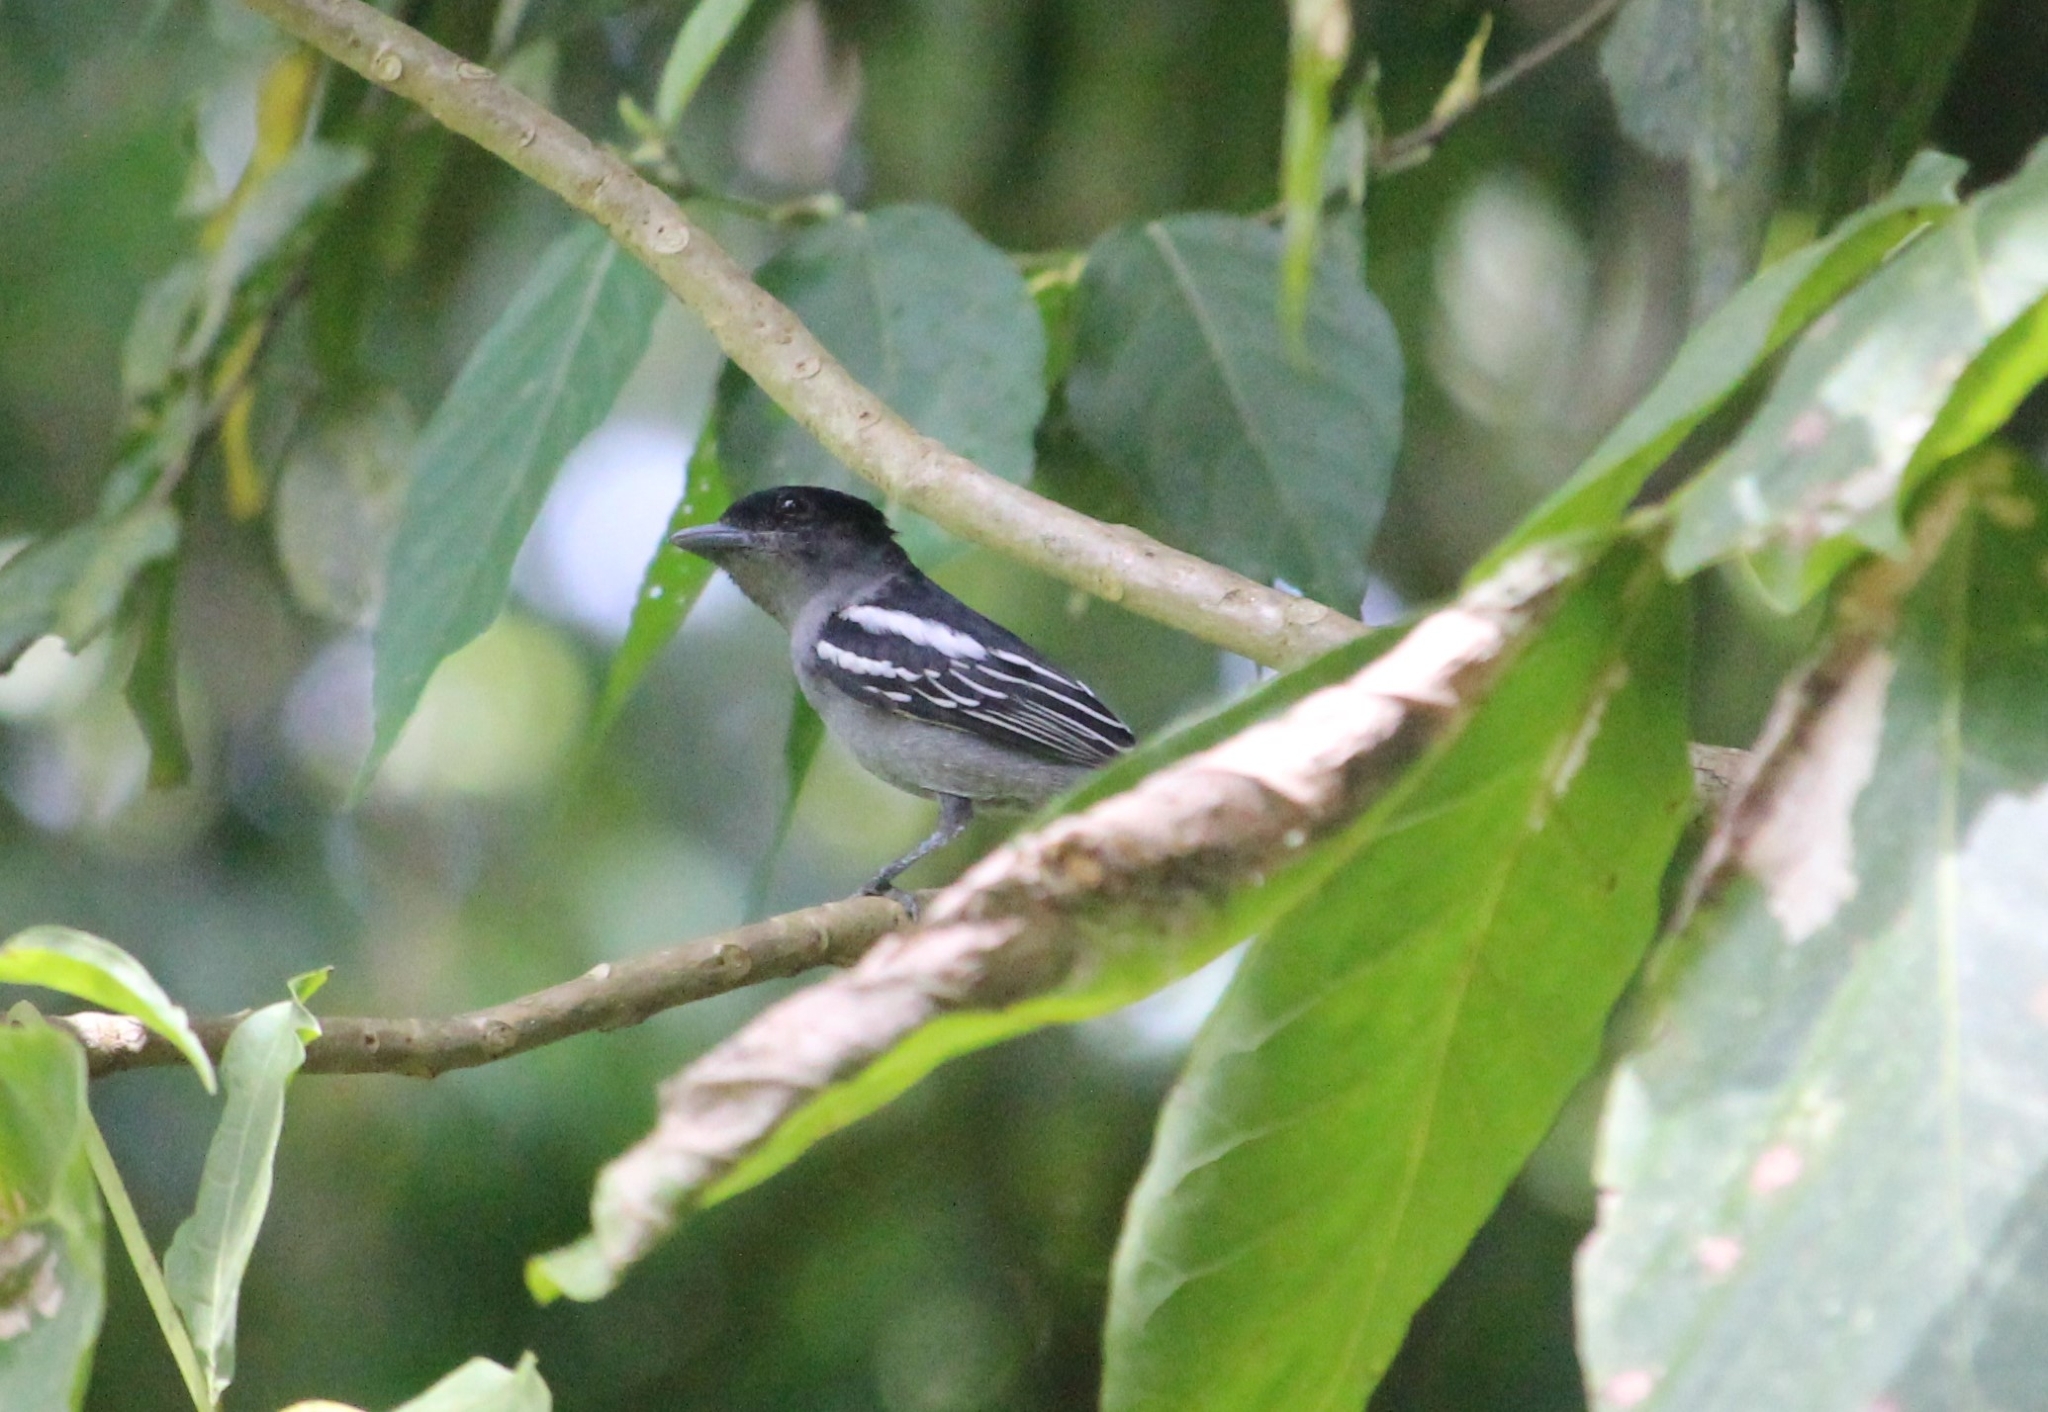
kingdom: Animalia
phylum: Chordata
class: Aves
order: Passeriformes
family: Cotingidae
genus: Pachyramphus
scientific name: Pachyramphus polychopterus
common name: White-winged becard
